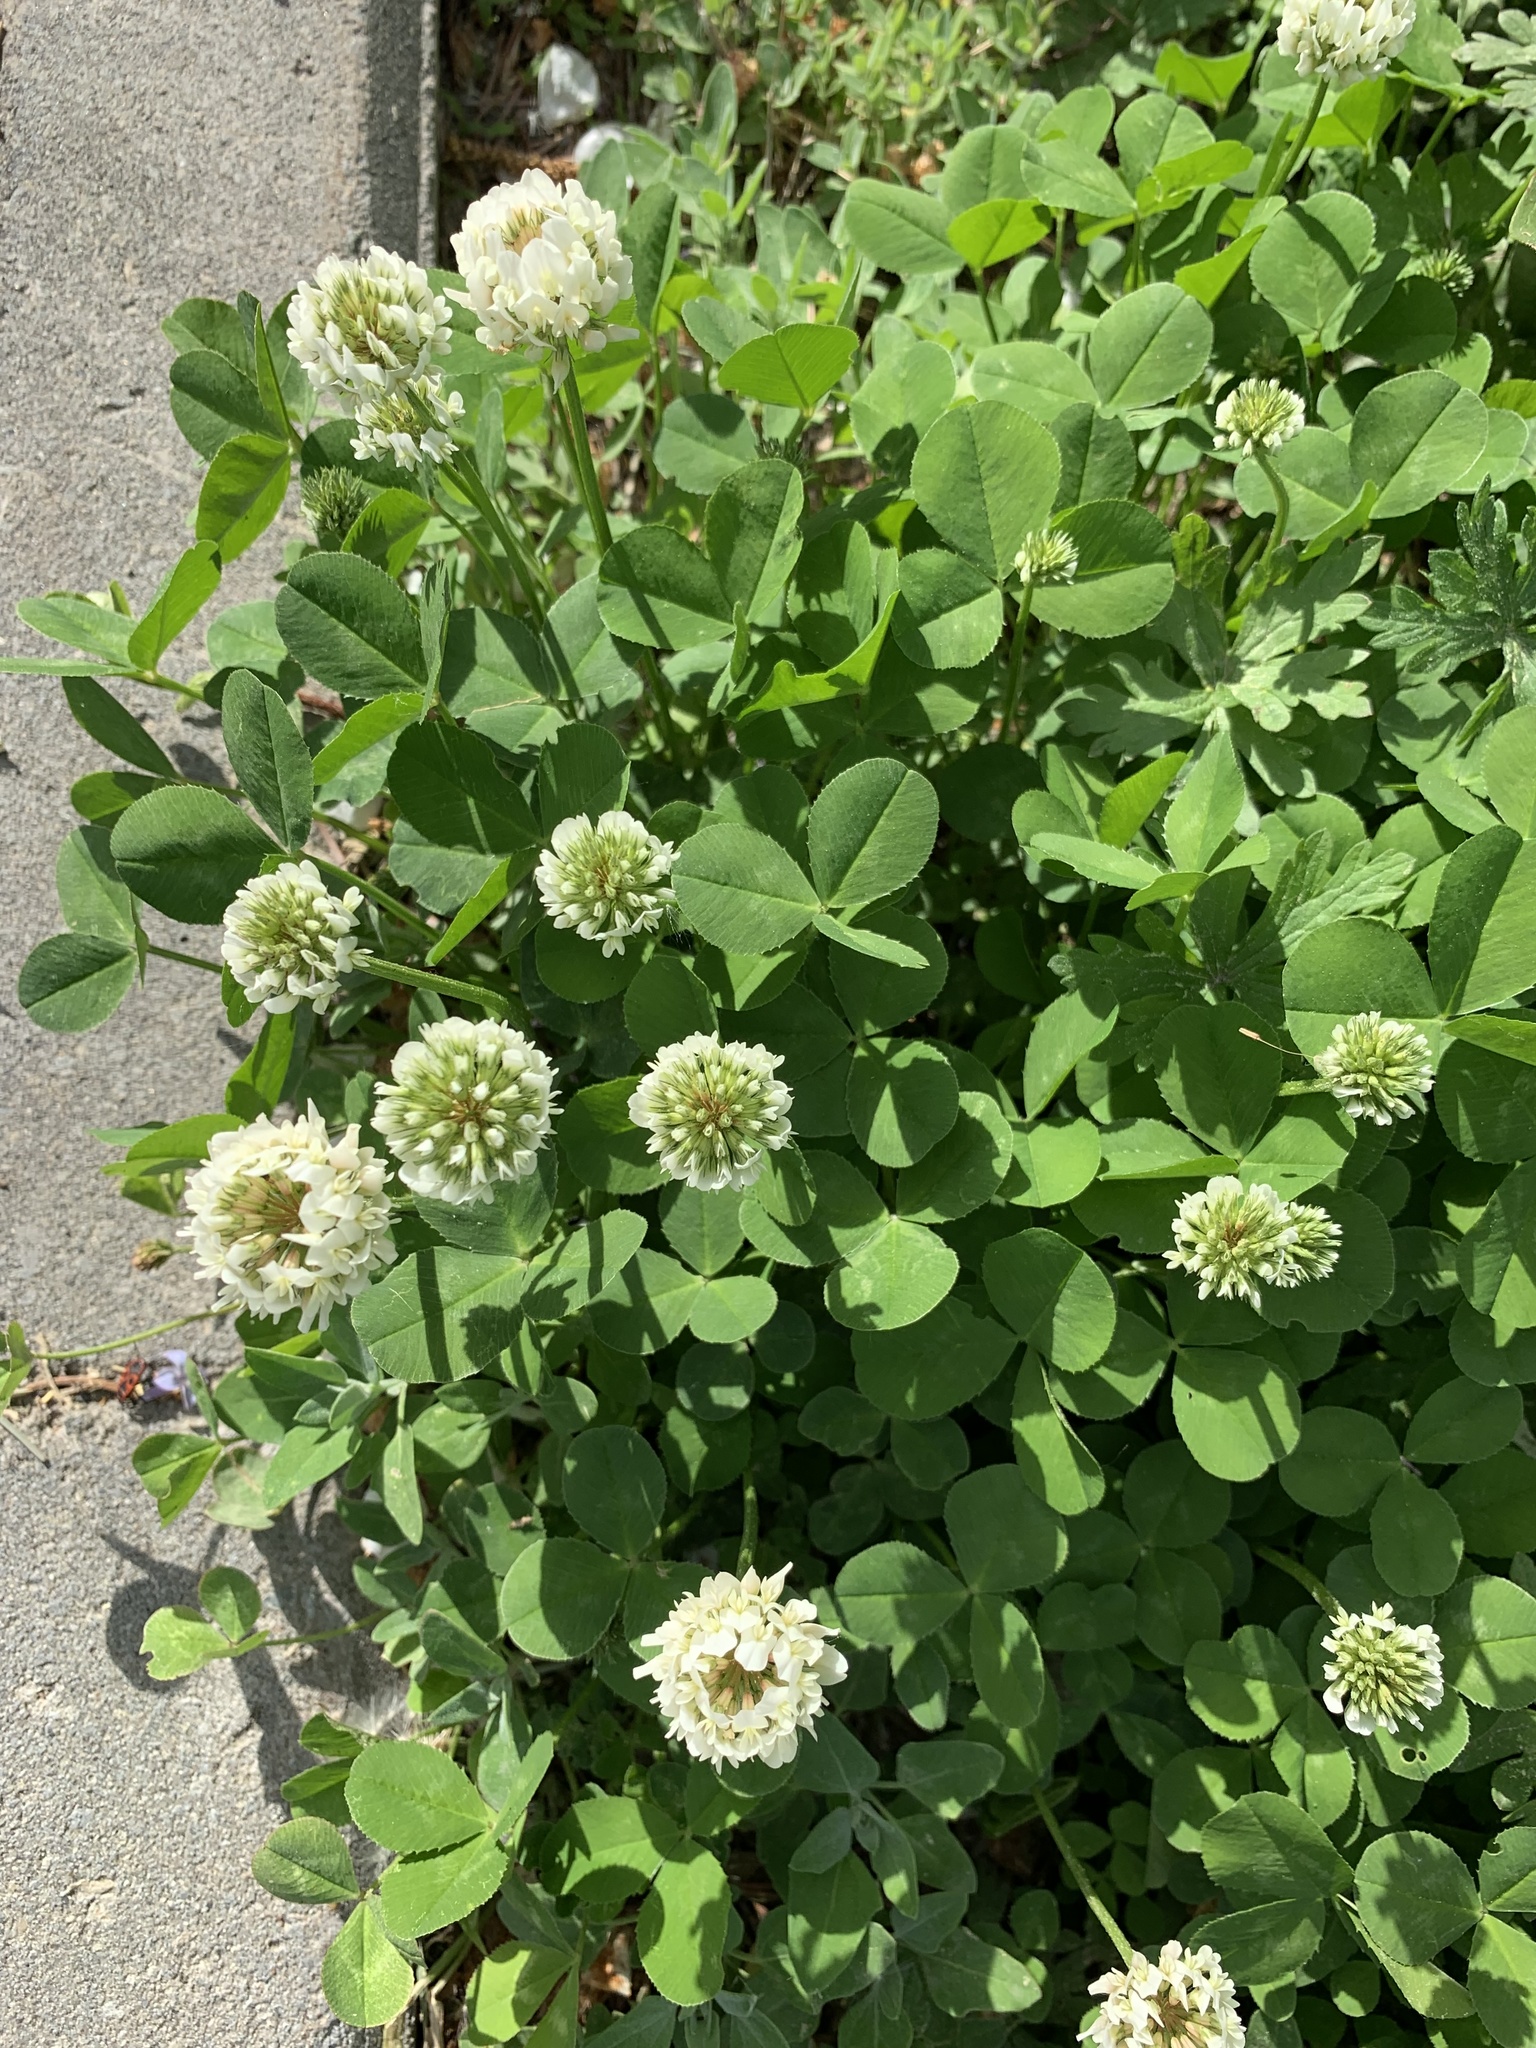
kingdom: Plantae
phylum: Tracheophyta
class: Magnoliopsida
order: Fabales
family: Fabaceae
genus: Trifolium
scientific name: Trifolium repens
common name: White clover
